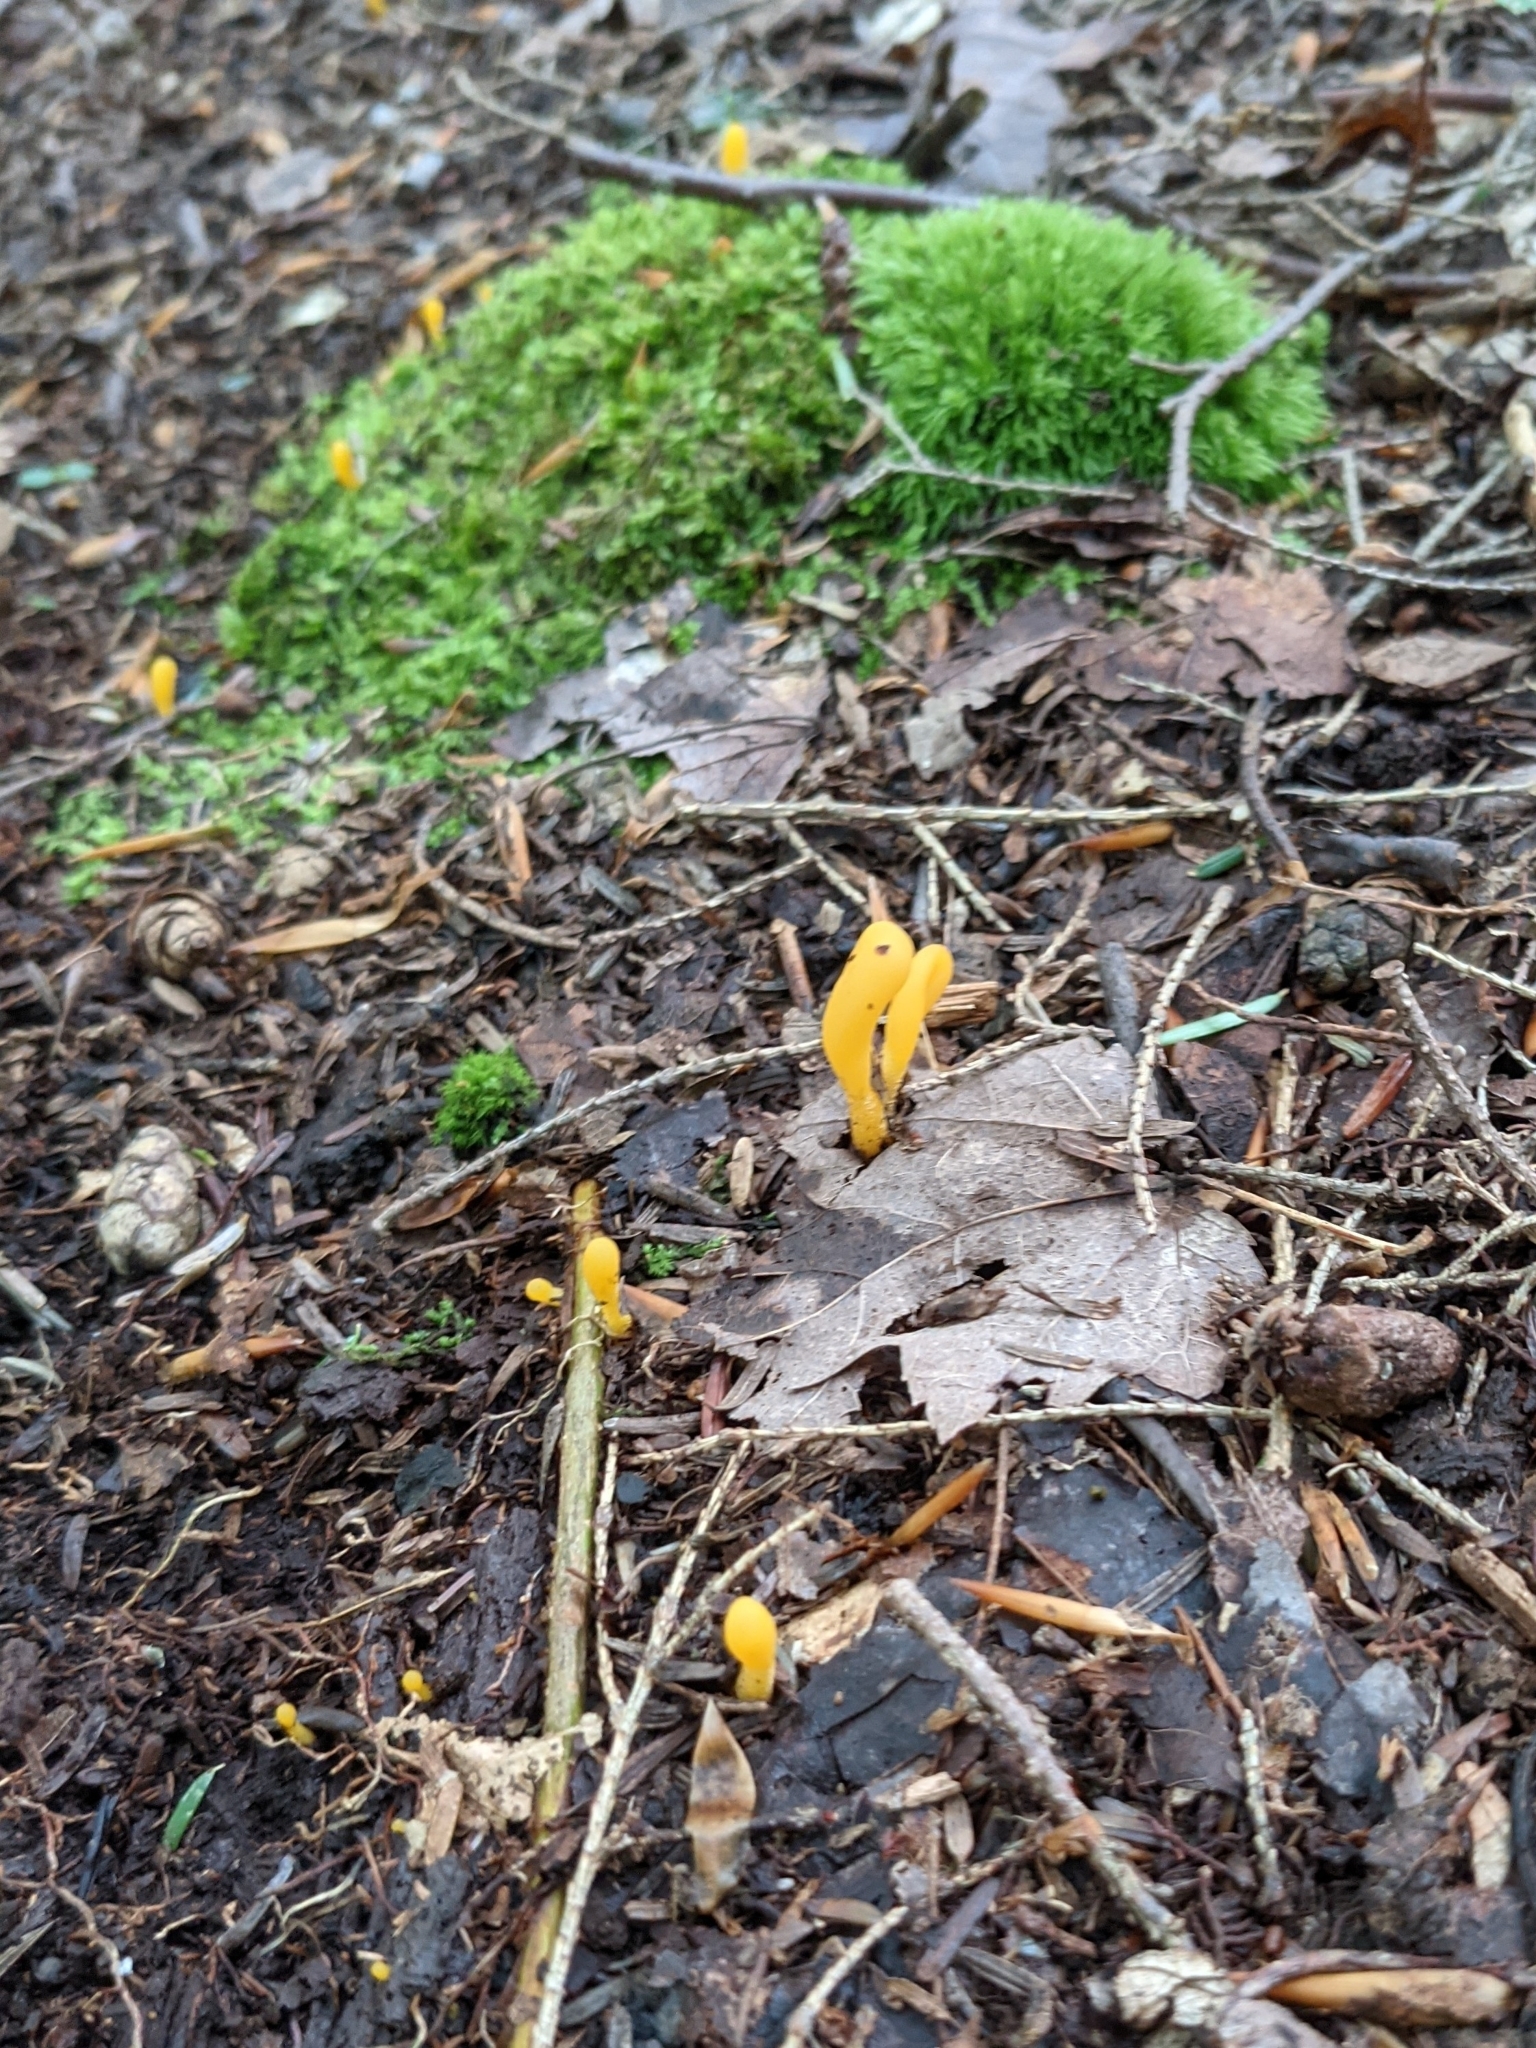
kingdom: Fungi
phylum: Ascomycota
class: Leotiomycetes
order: Leotiales
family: Leotiaceae
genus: Microglossum
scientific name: Microglossum rufum
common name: Orange earthtongue
